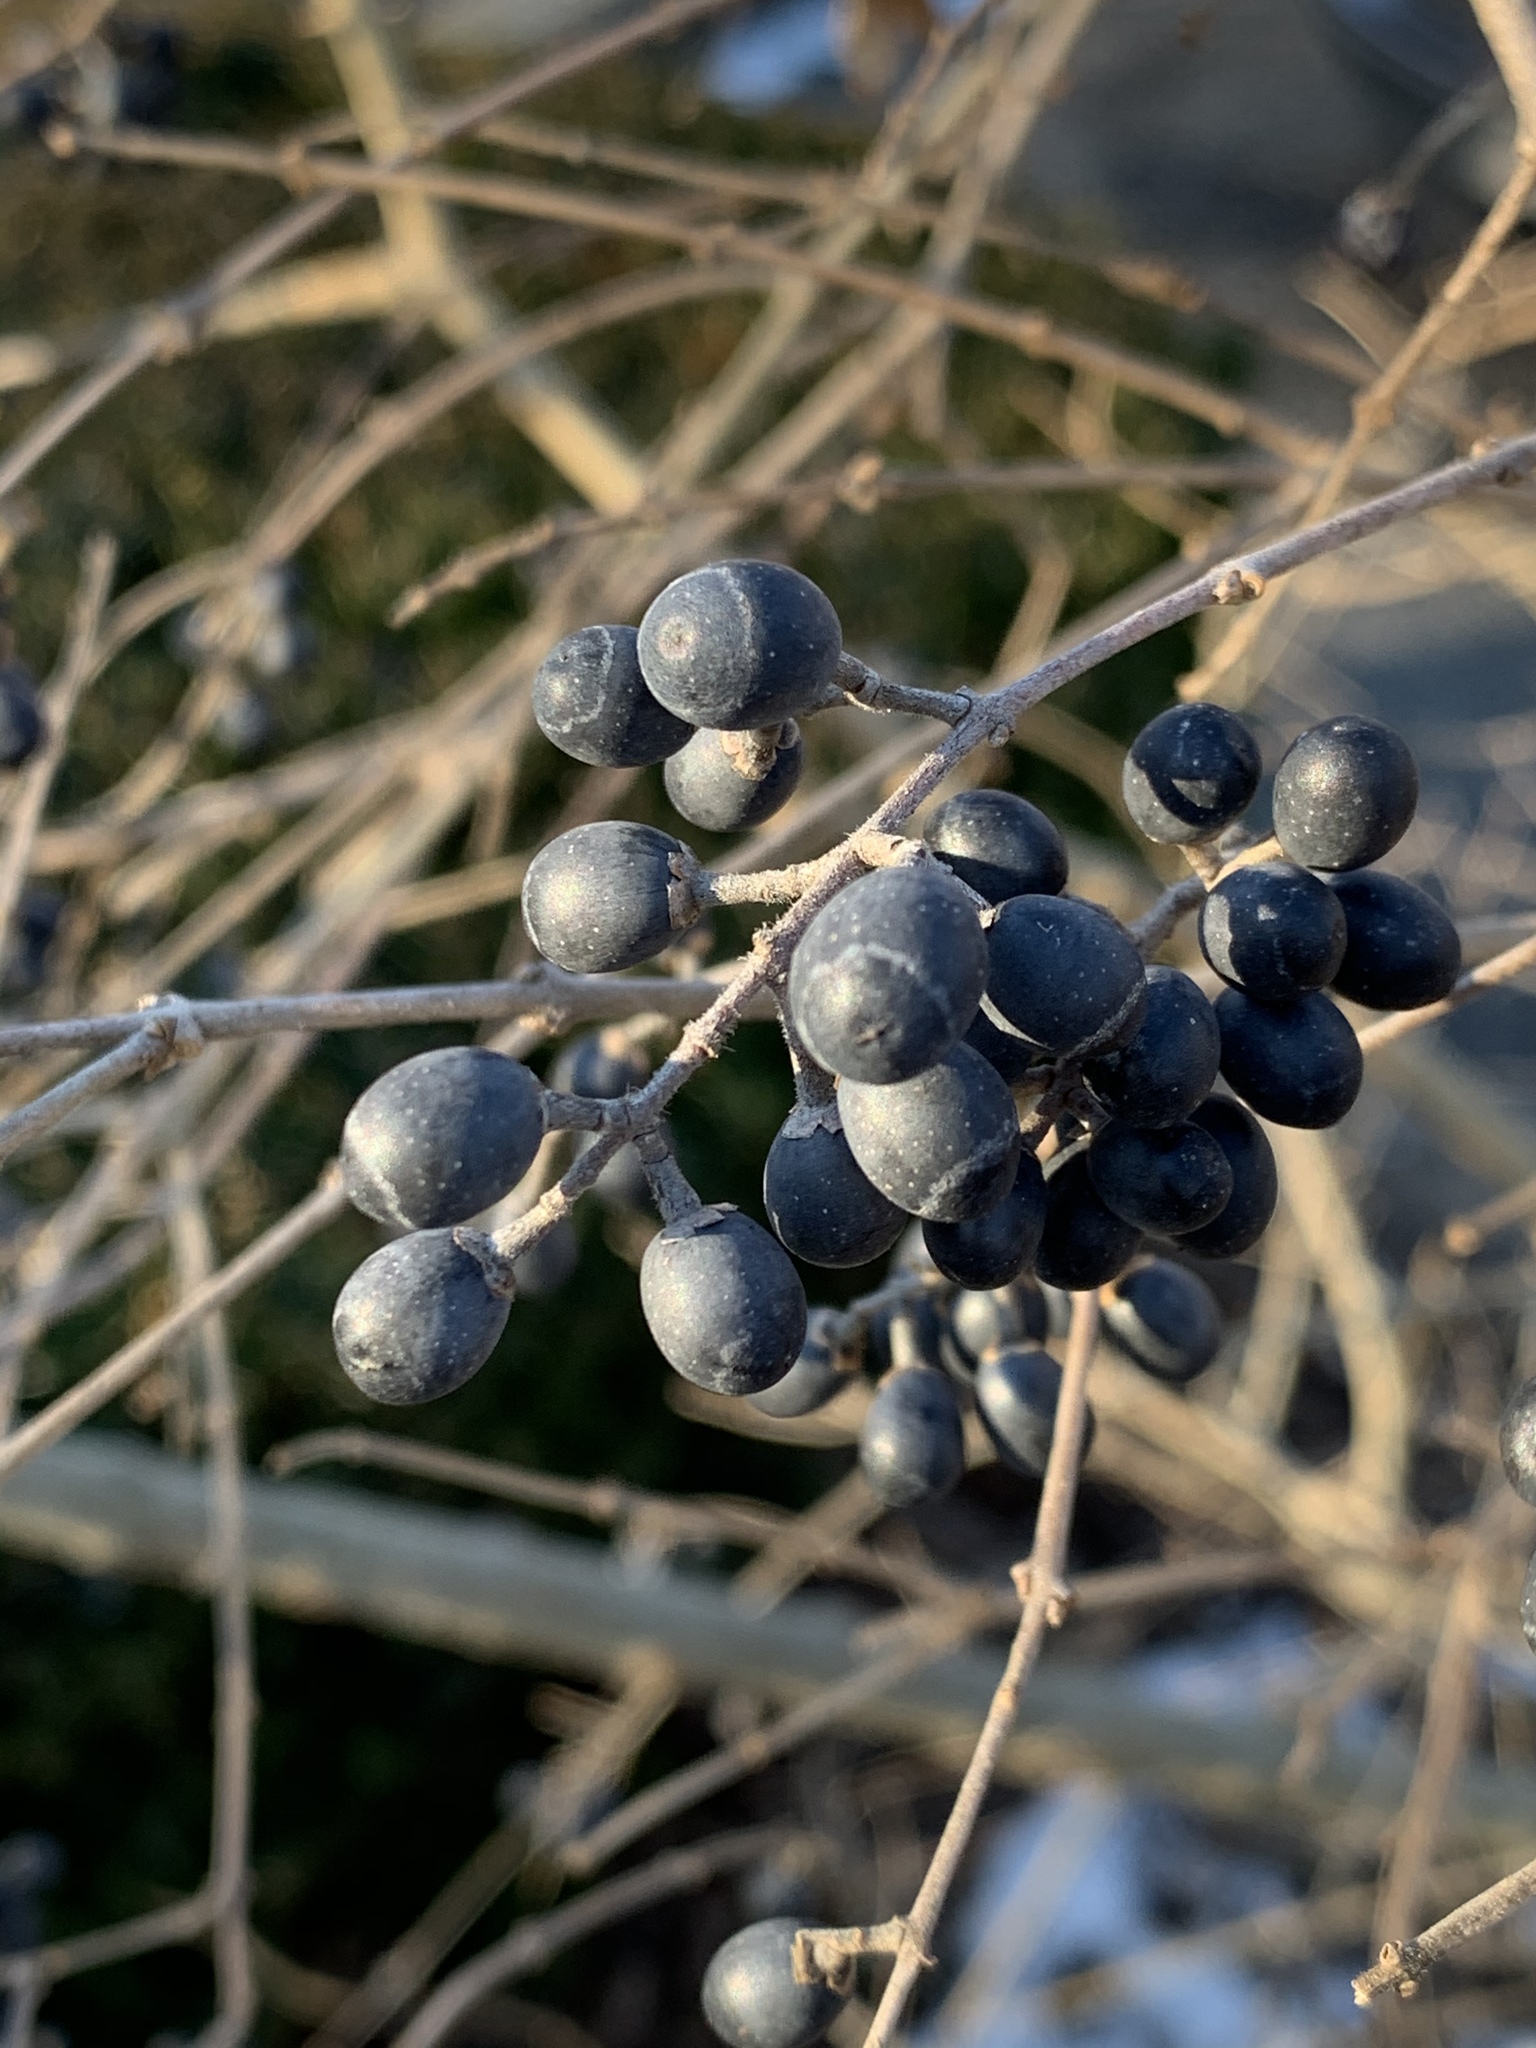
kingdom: Plantae
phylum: Tracheophyta
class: Magnoliopsida
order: Lamiales
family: Oleaceae
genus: Ligustrum
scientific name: Ligustrum obtusifolium
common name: Border privet
